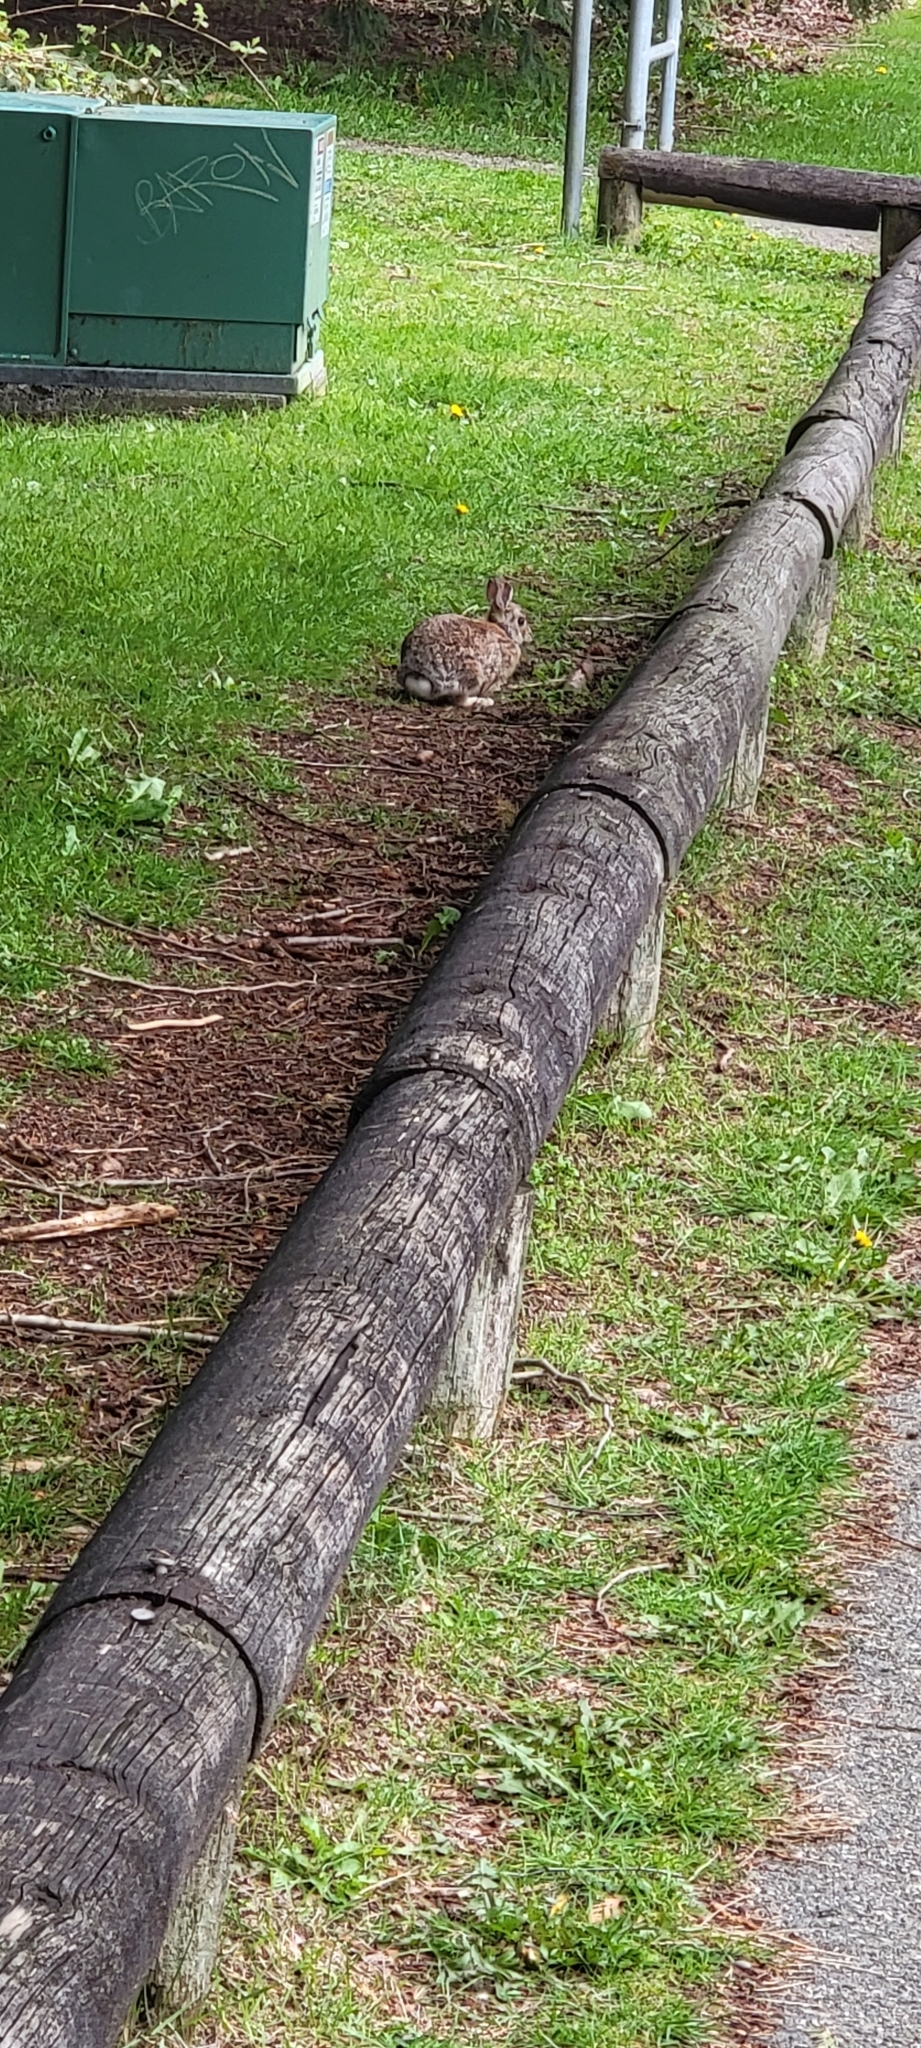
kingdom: Animalia
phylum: Chordata
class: Mammalia
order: Lagomorpha
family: Leporidae
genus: Sylvilagus
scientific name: Sylvilagus floridanus
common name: Eastern cottontail
